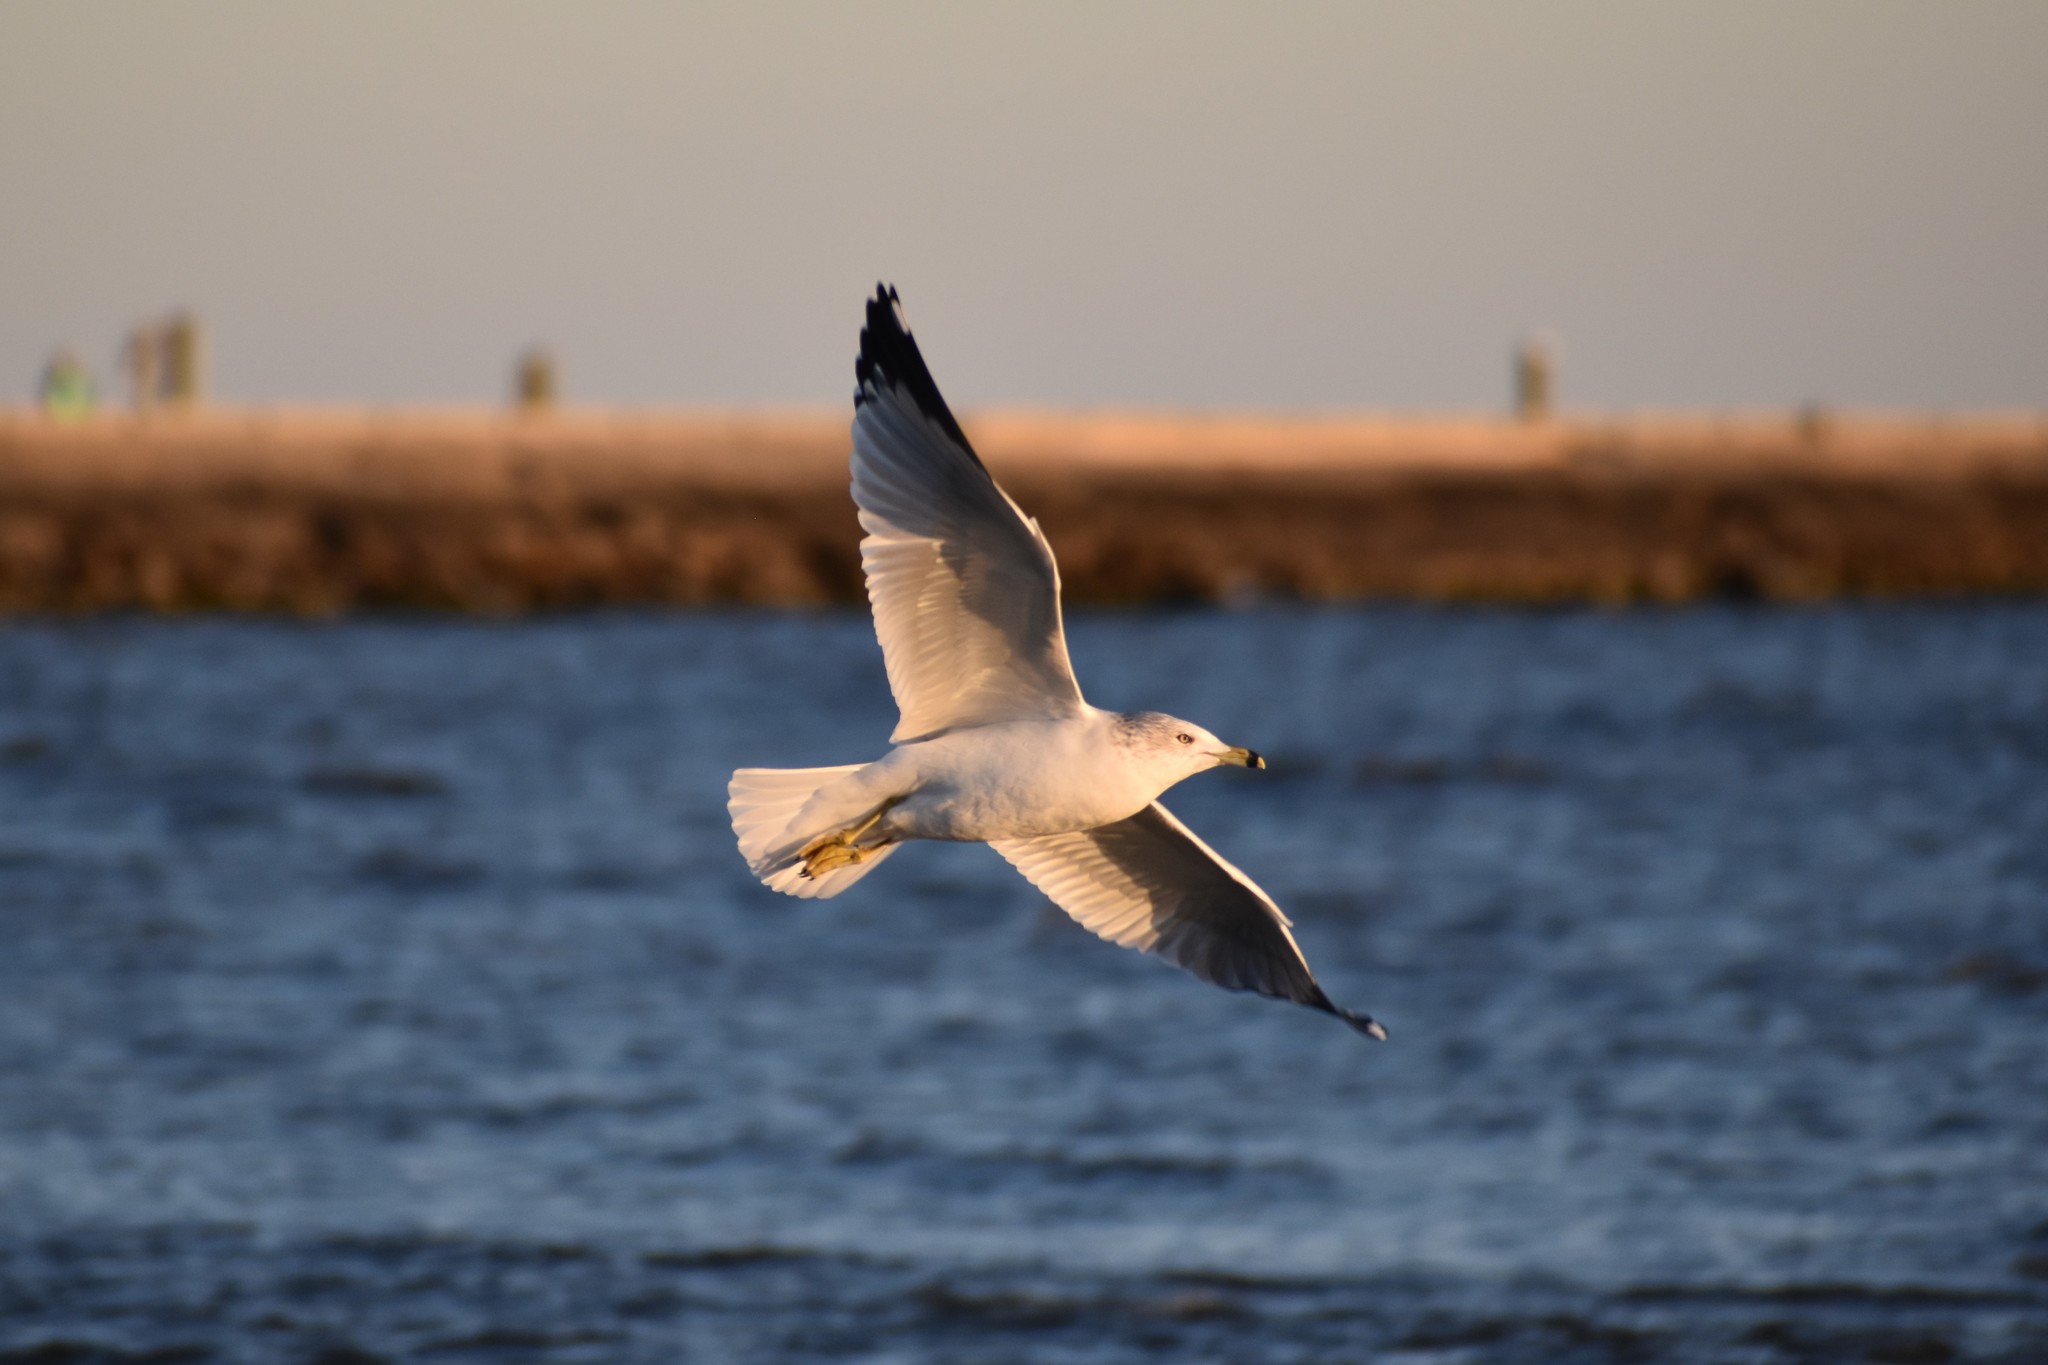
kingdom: Animalia
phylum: Chordata
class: Aves
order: Charadriiformes
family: Laridae
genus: Larus
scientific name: Larus delawarensis
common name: Ring-billed gull
